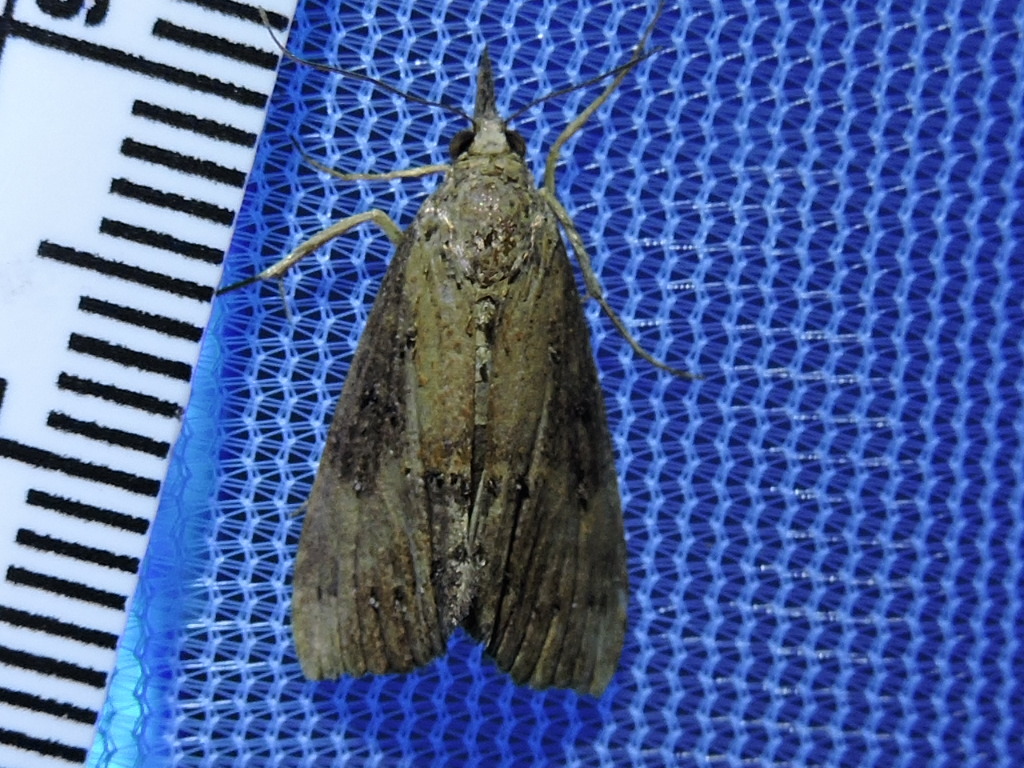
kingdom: Animalia
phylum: Arthropoda
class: Insecta
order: Lepidoptera
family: Erebidae
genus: Hypena
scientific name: Hypena scabra
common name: Green cloverworm
